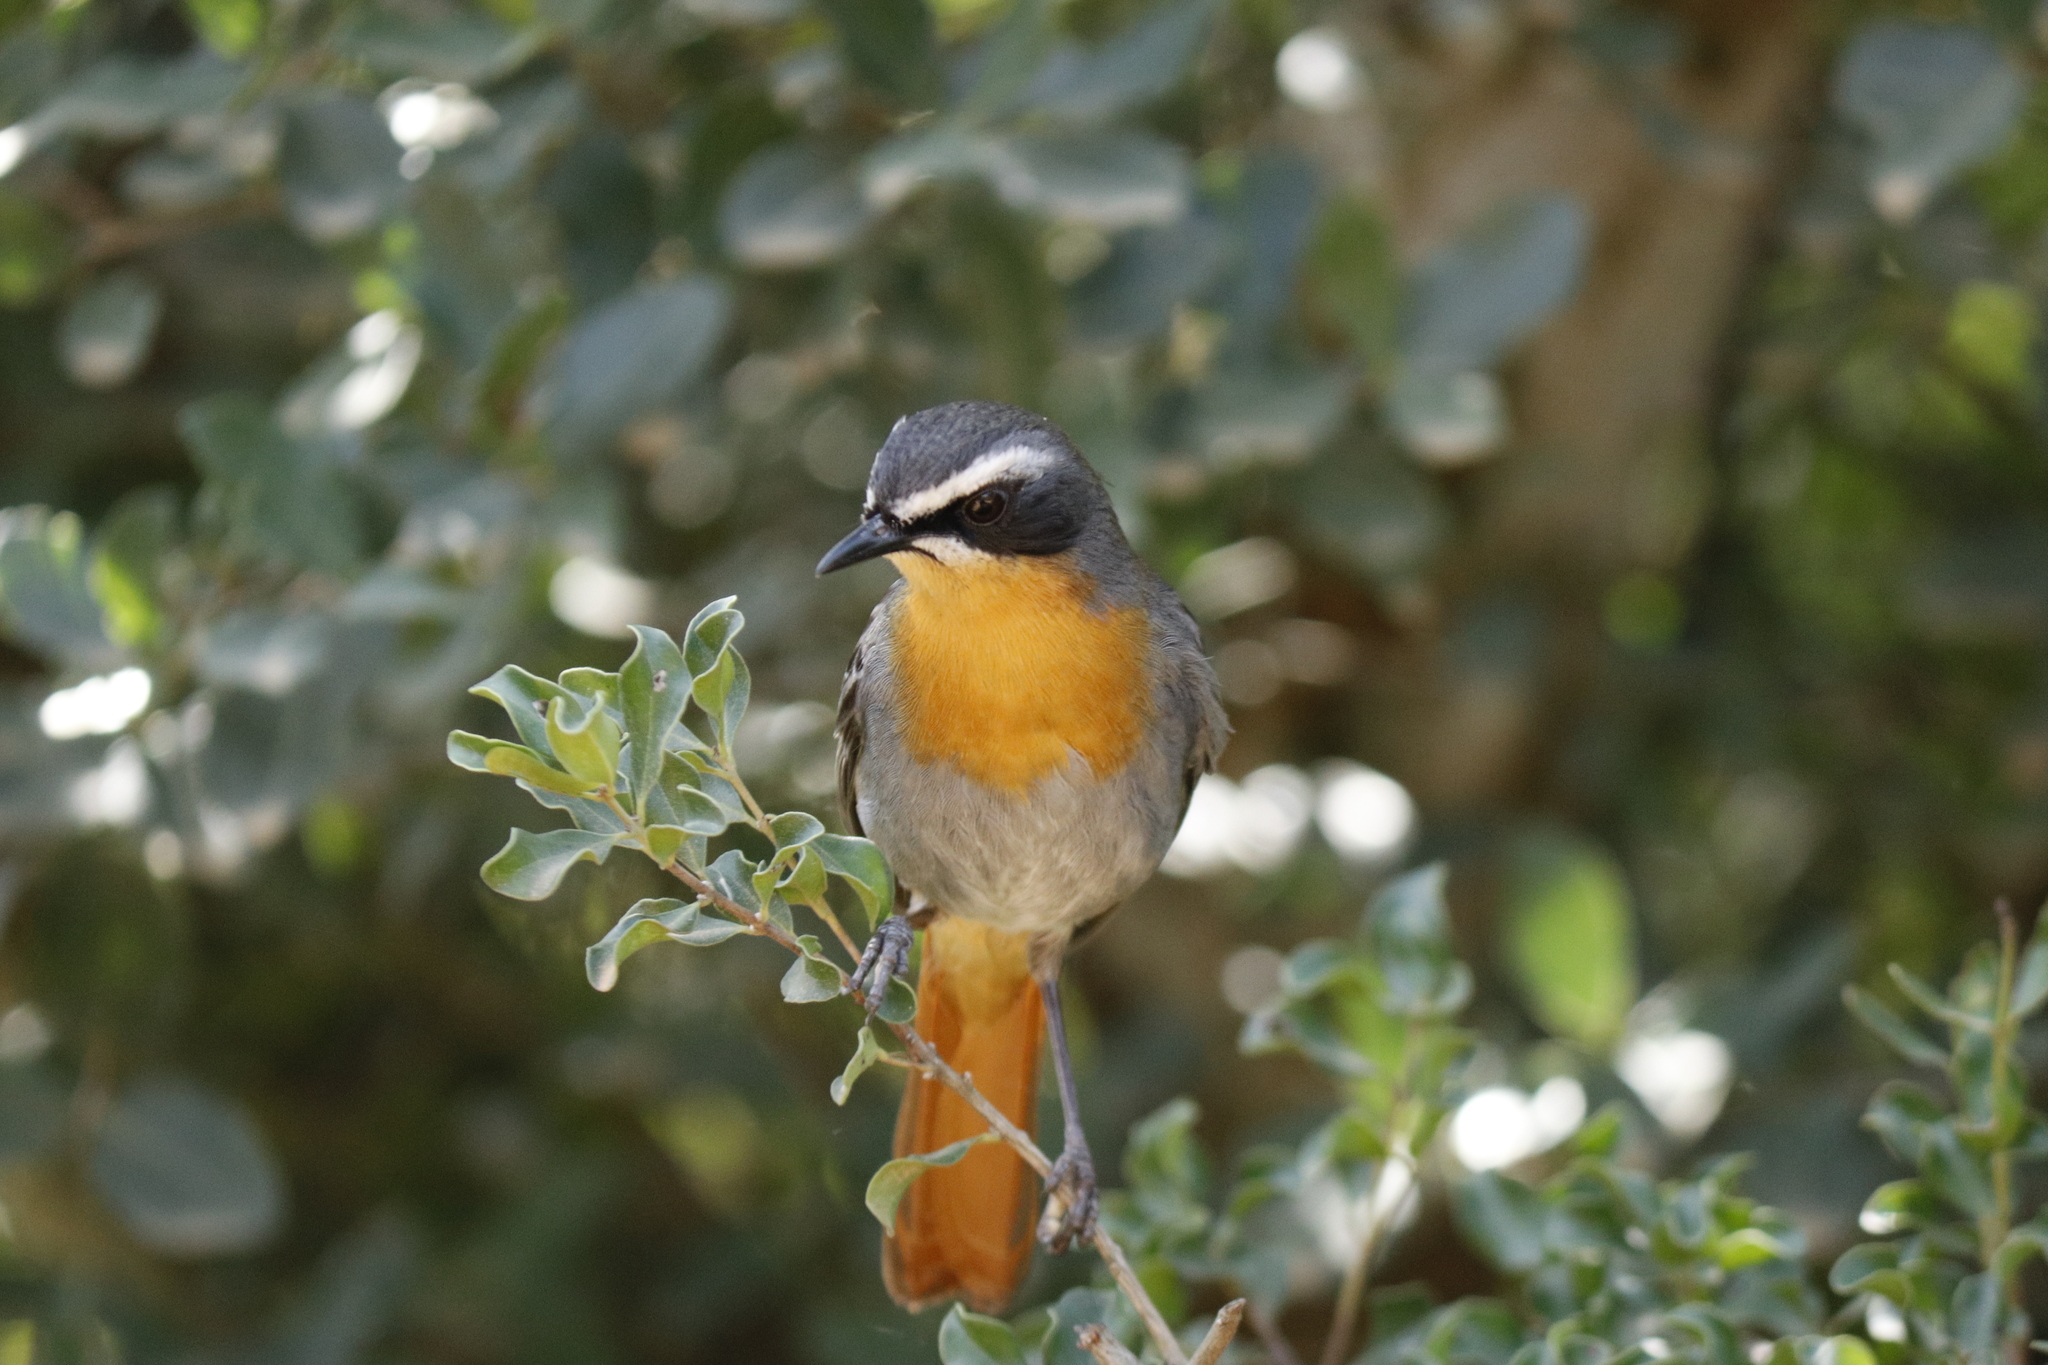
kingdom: Animalia
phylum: Chordata
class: Aves
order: Passeriformes
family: Muscicapidae
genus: Cossypha
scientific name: Cossypha caffra
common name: Cape robin-chat
